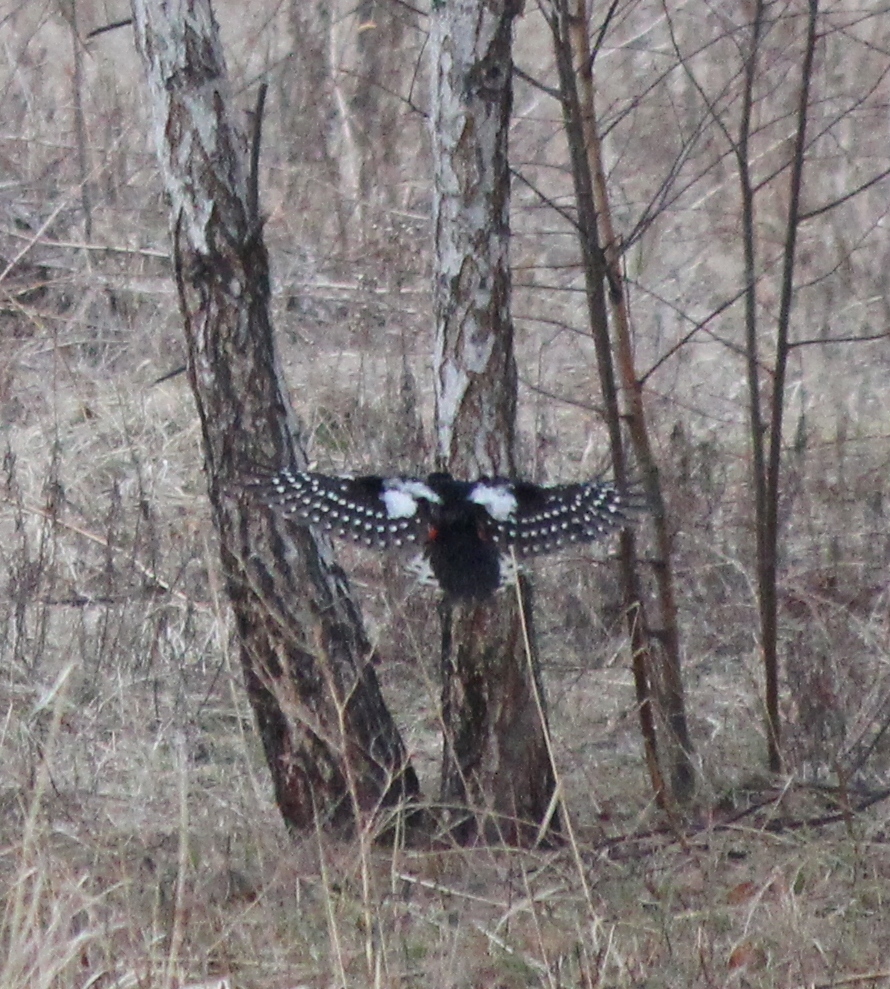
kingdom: Animalia
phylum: Chordata
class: Aves
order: Piciformes
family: Picidae
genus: Dendrocopos
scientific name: Dendrocopos major
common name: Great spotted woodpecker
